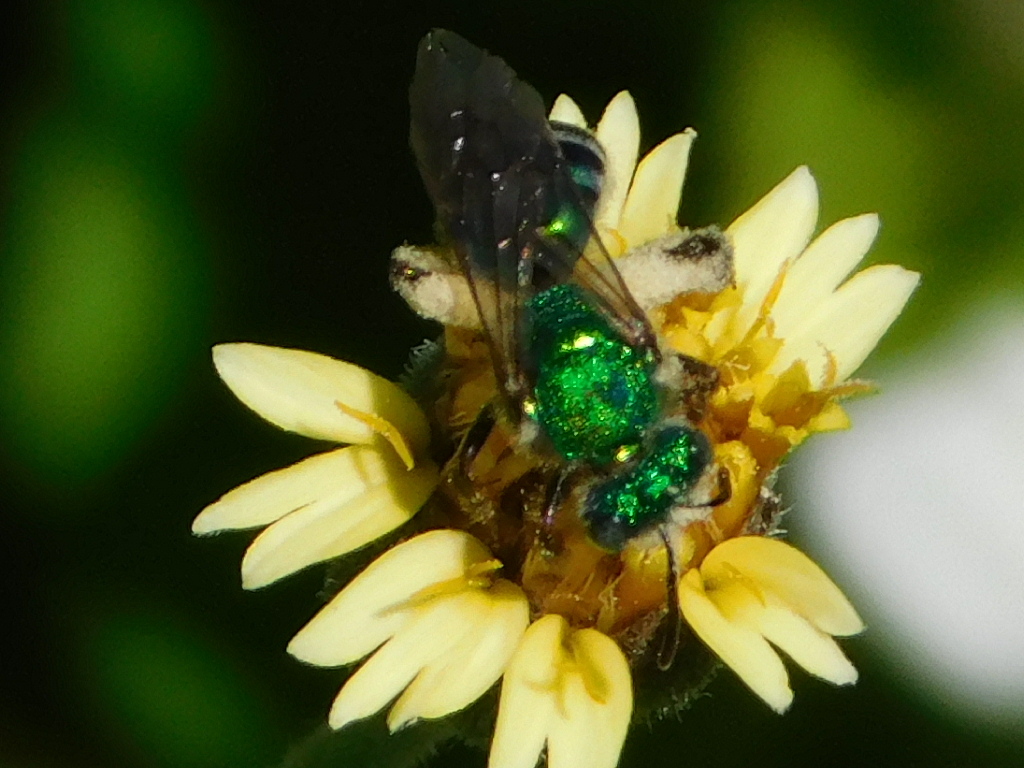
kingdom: Animalia
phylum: Arthropoda
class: Insecta
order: Hymenoptera
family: Halictidae
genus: Agapostemon
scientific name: Agapostemon poeyi
